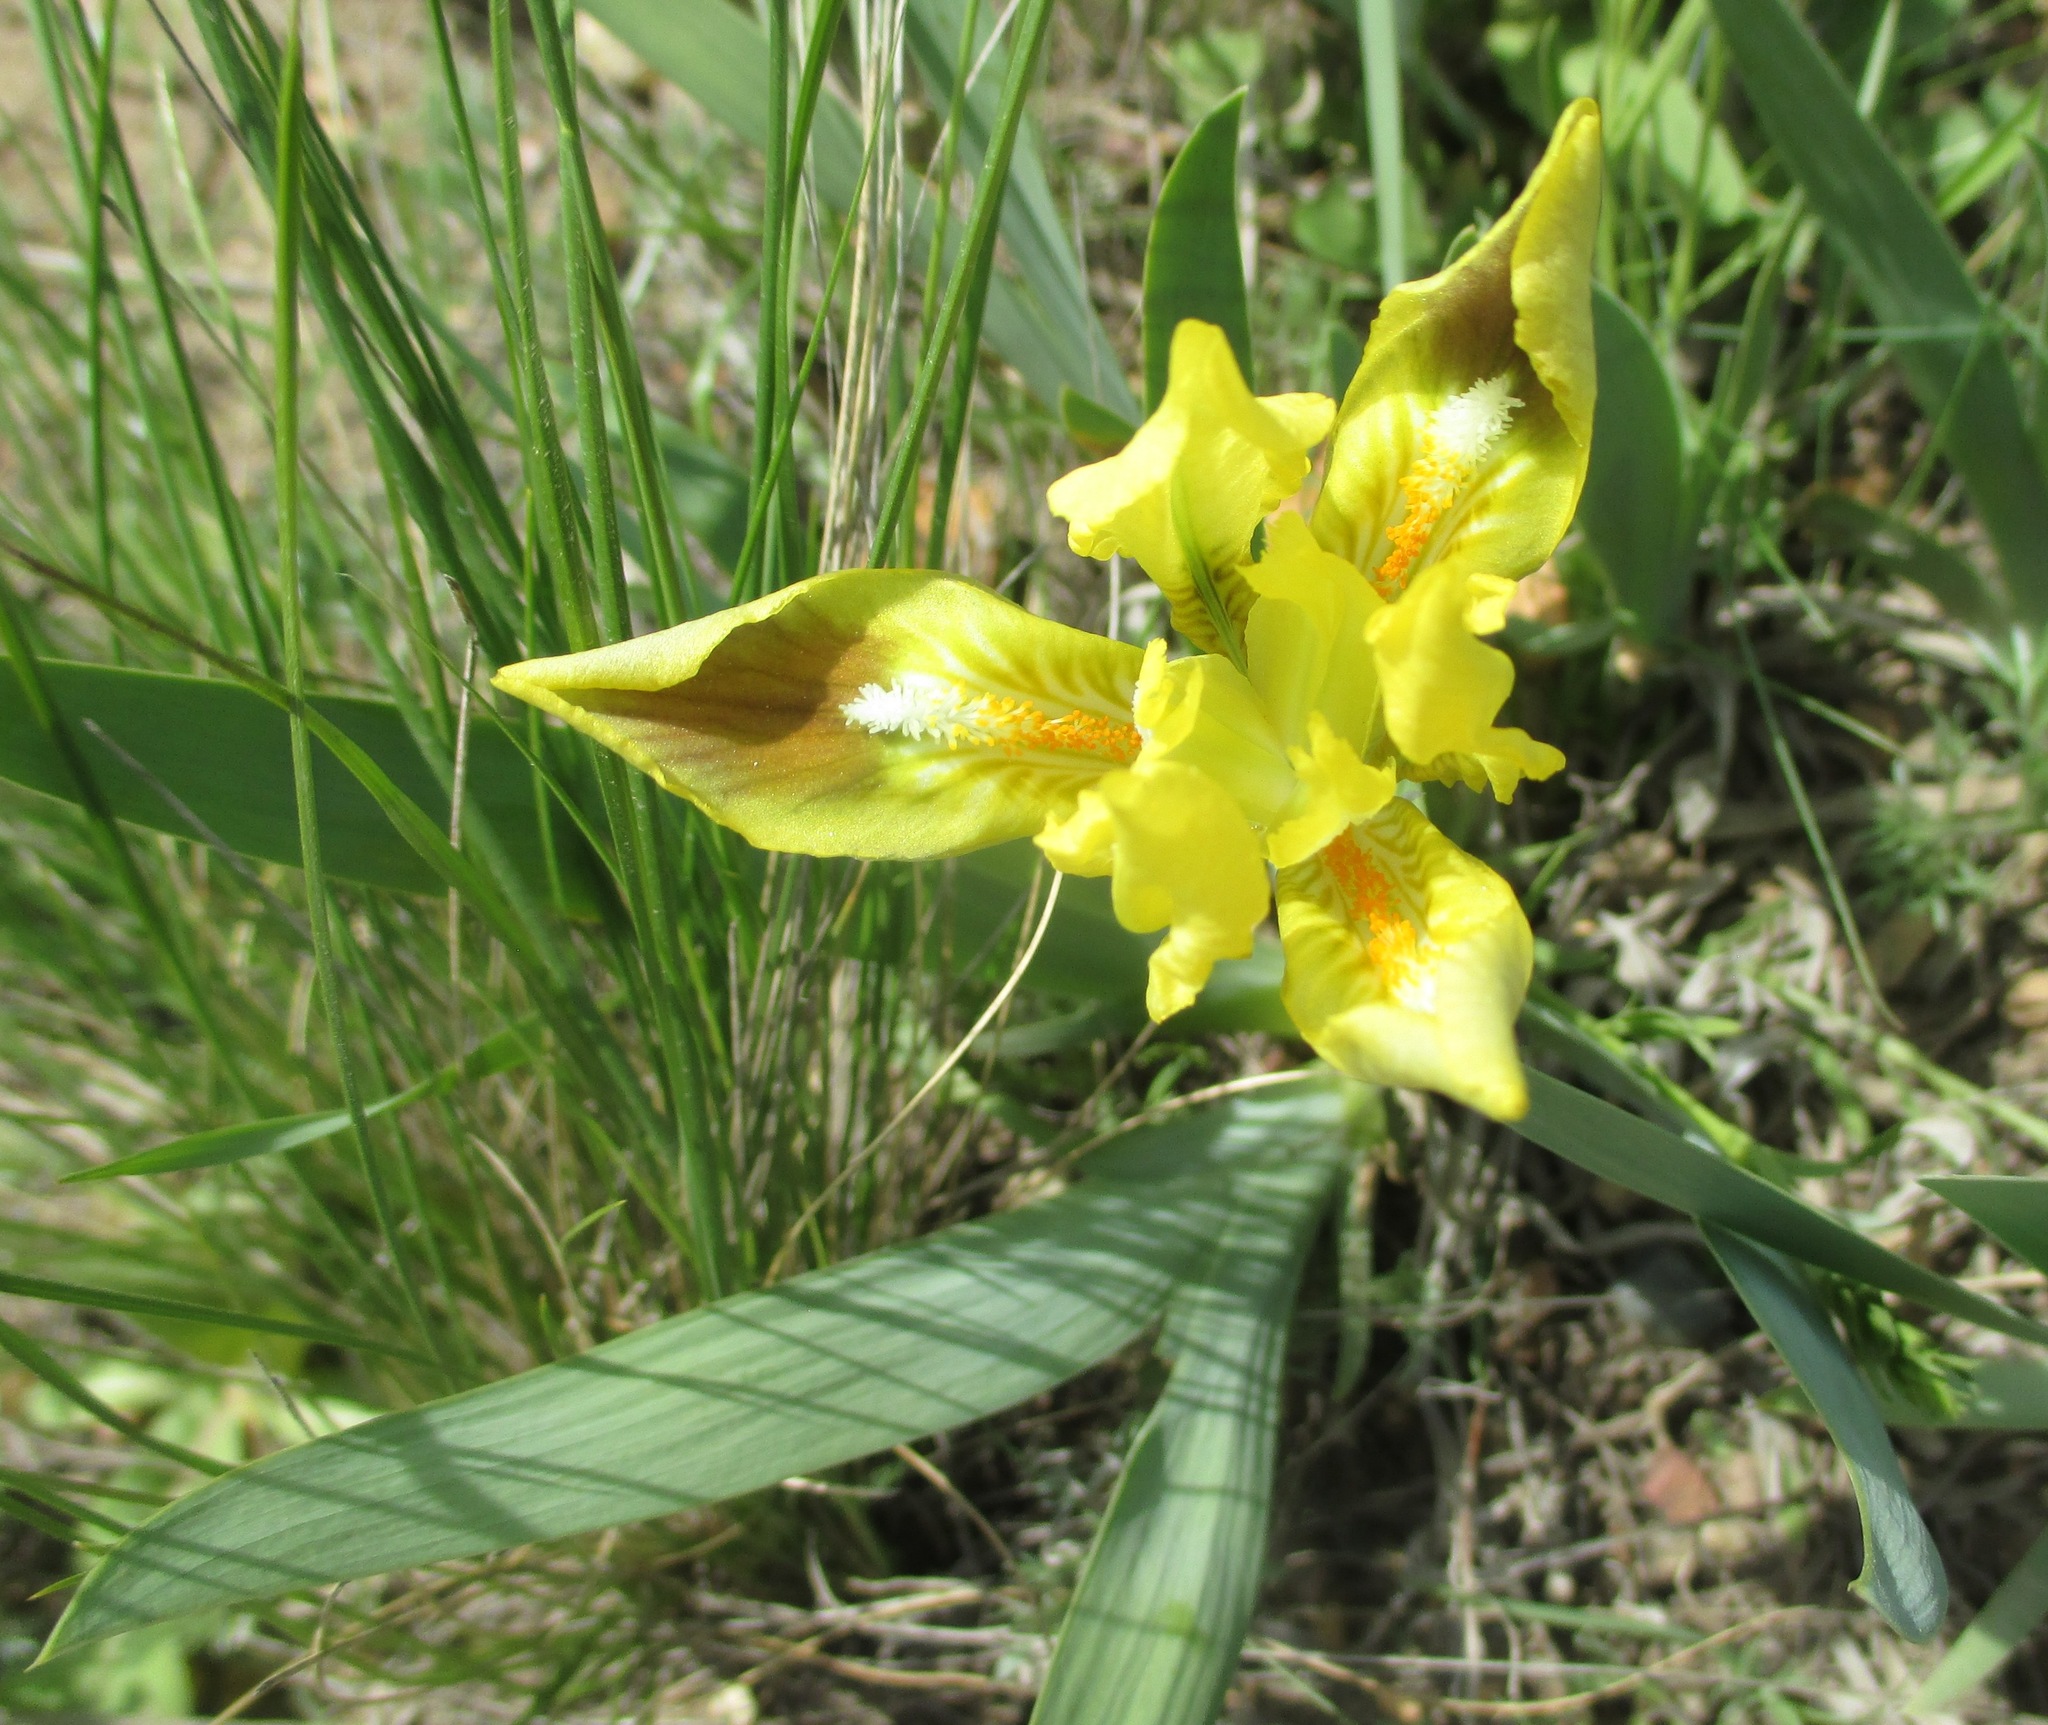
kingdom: Plantae
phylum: Tracheophyta
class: Liliopsida
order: Asparagales
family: Iridaceae
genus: Iris
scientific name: Iris pumila
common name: Dwarf iris
